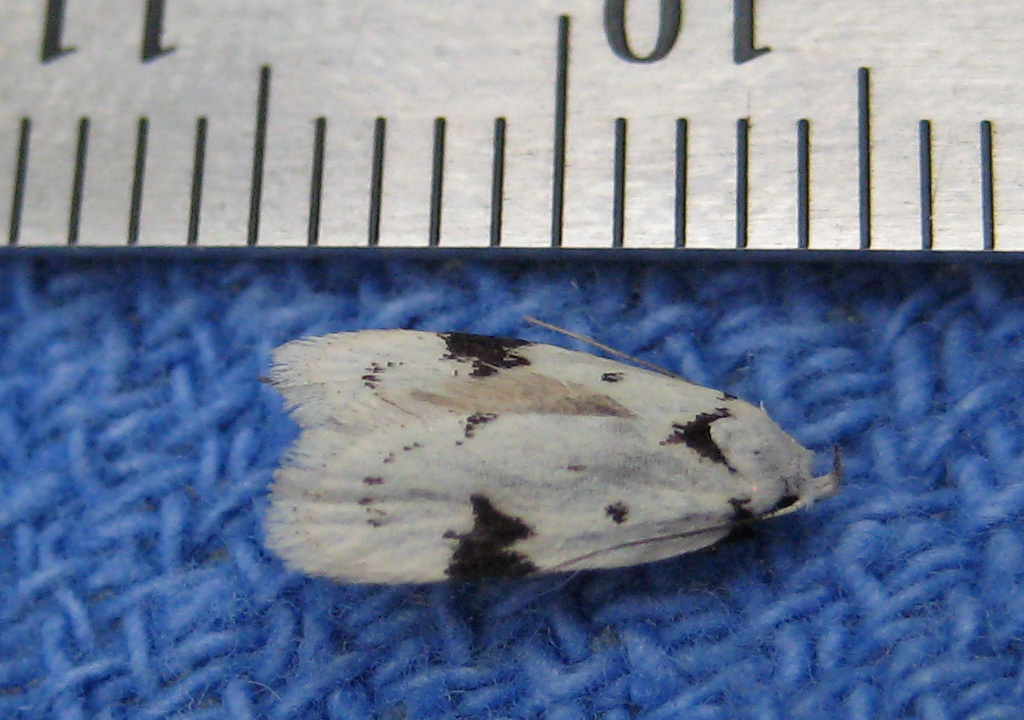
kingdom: Animalia
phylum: Arthropoda
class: Insecta
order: Lepidoptera
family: Oecophoridae
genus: Inga
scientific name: Inga sparsiciliella
